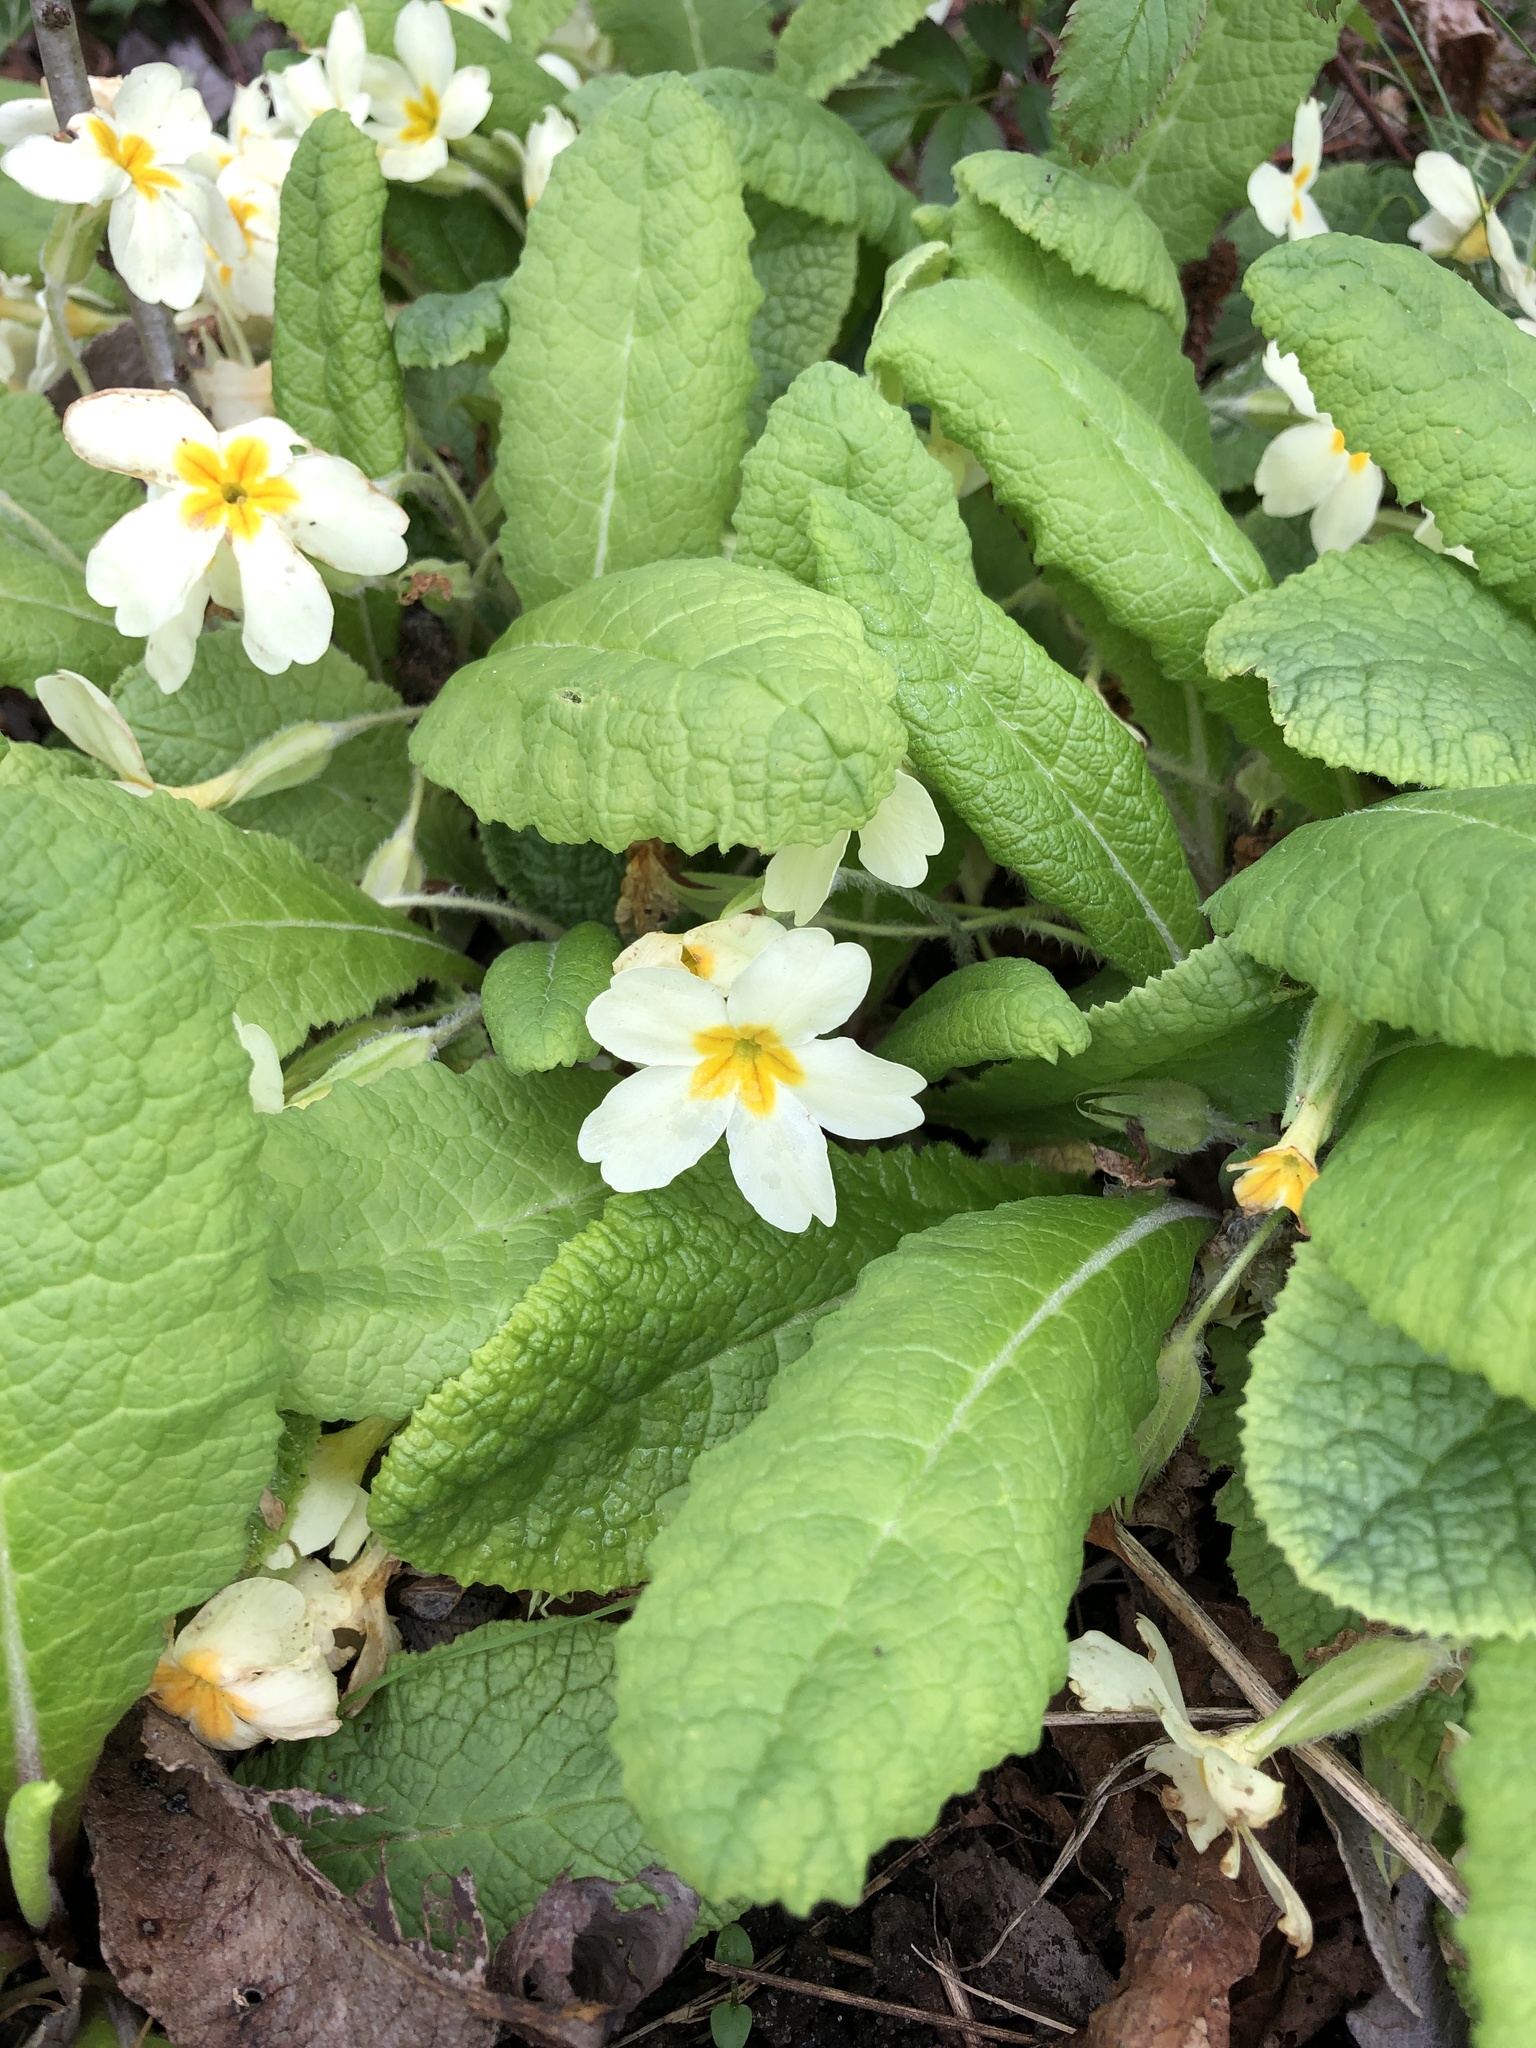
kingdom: Plantae
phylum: Tracheophyta
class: Magnoliopsida
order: Ericales
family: Primulaceae
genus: Primula
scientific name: Primula vulgaris
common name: Primrose
